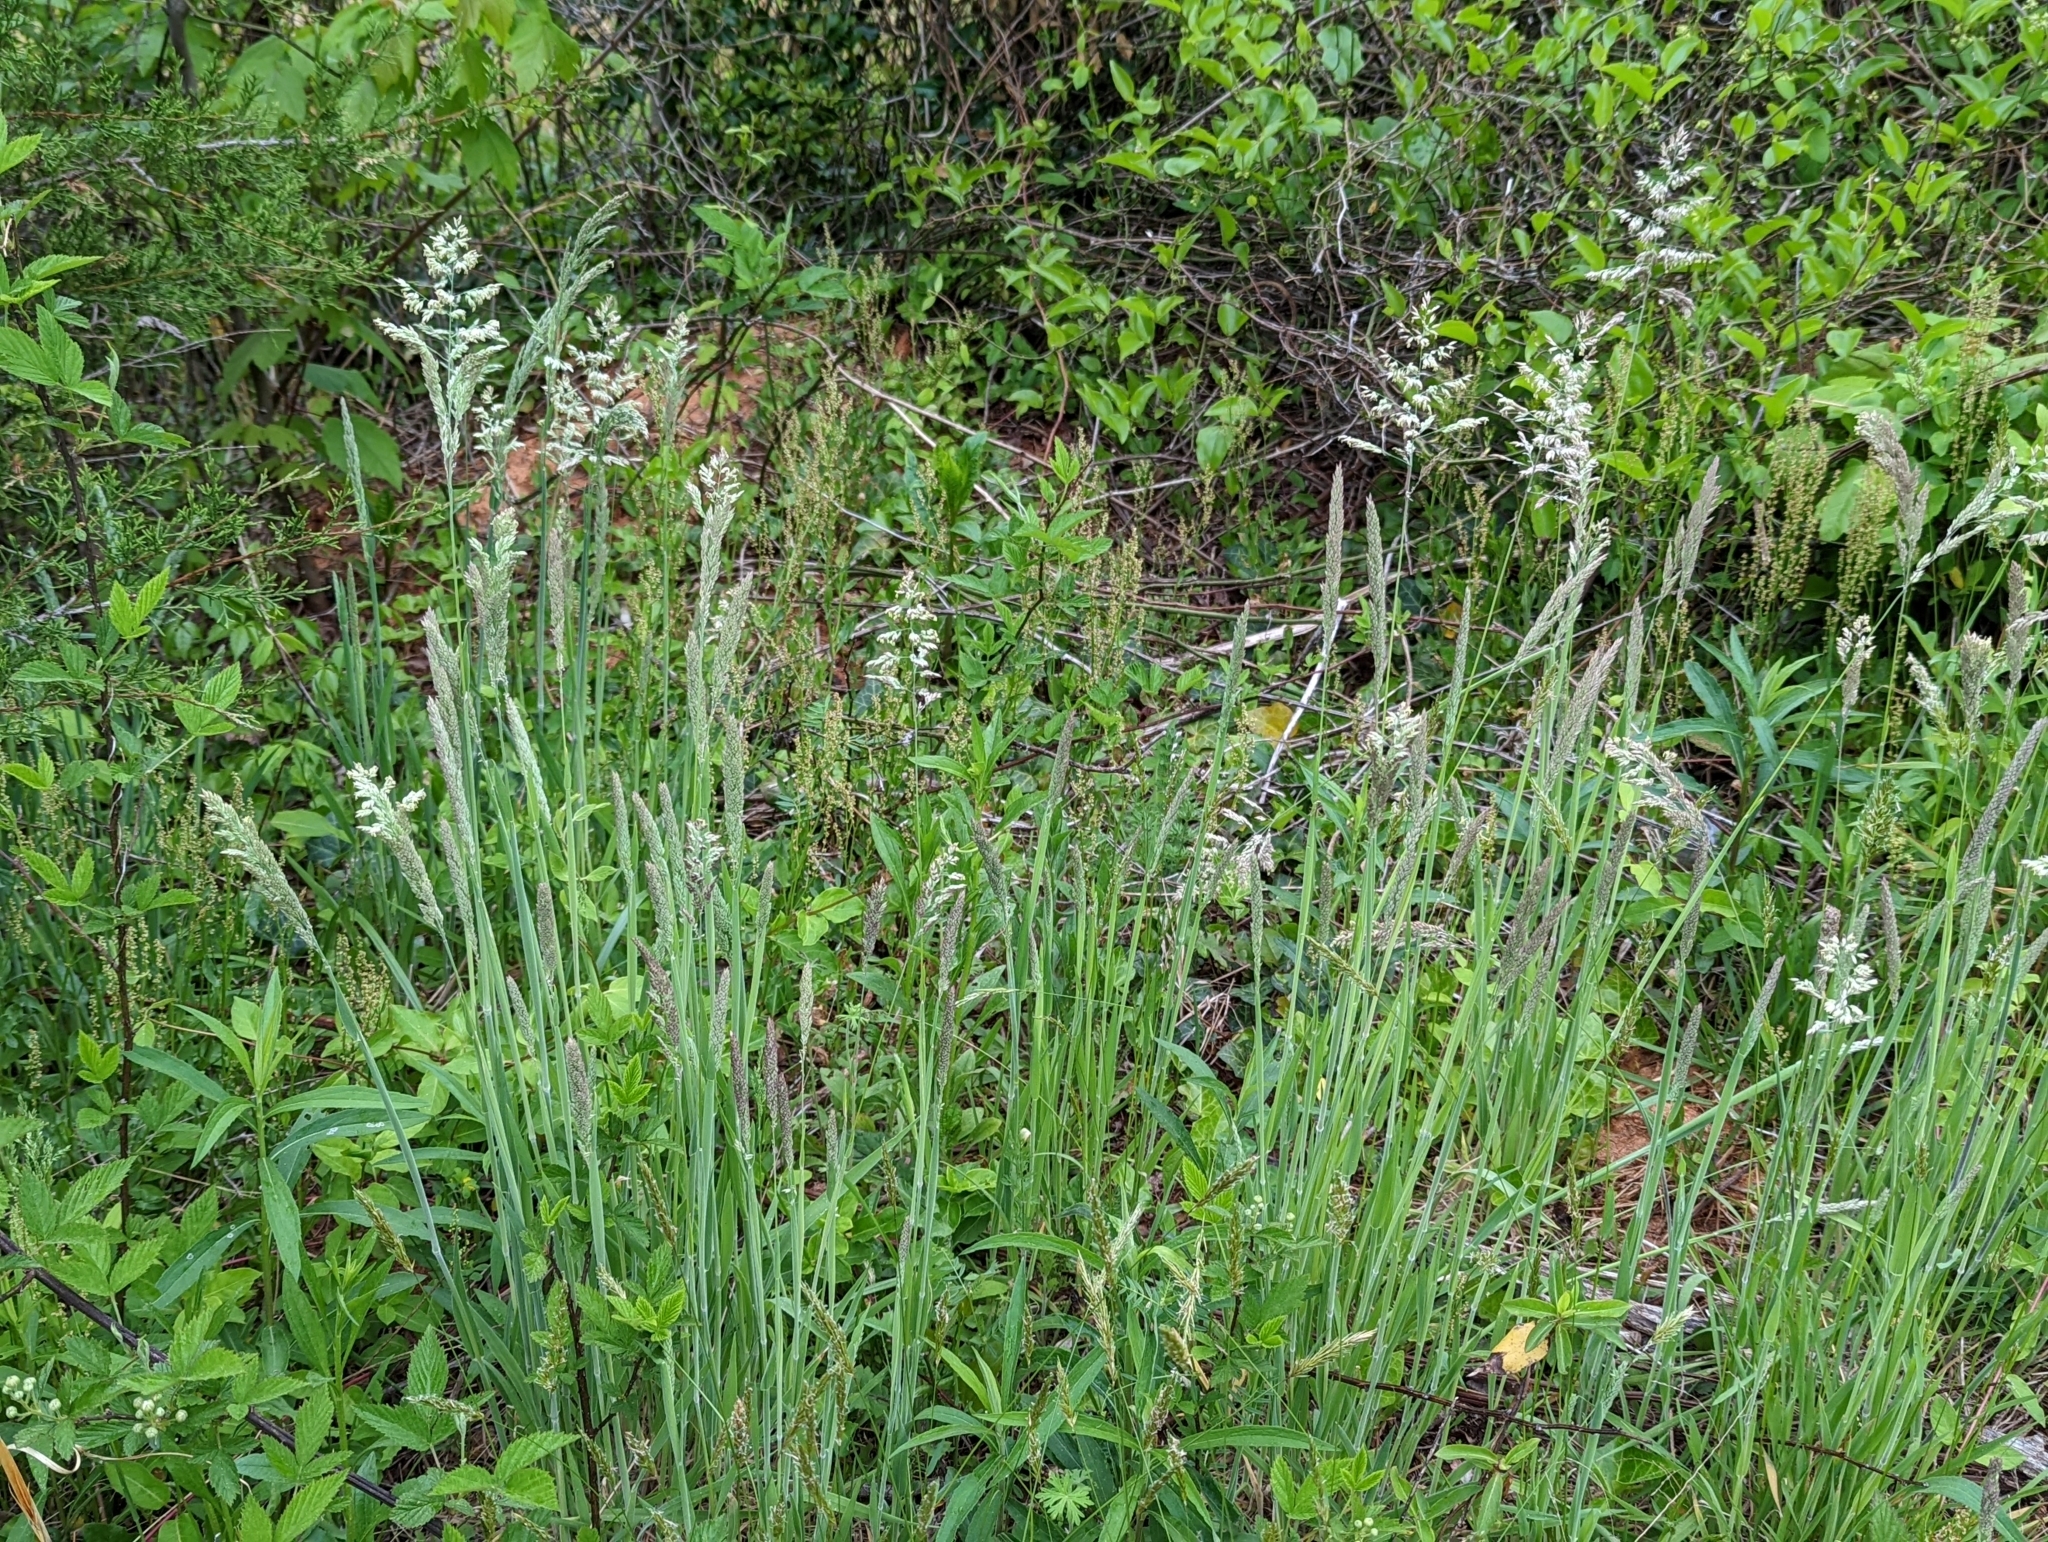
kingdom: Plantae
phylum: Tracheophyta
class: Liliopsida
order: Poales
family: Poaceae
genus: Holcus
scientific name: Holcus lanatus
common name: Yorkshire-fog
